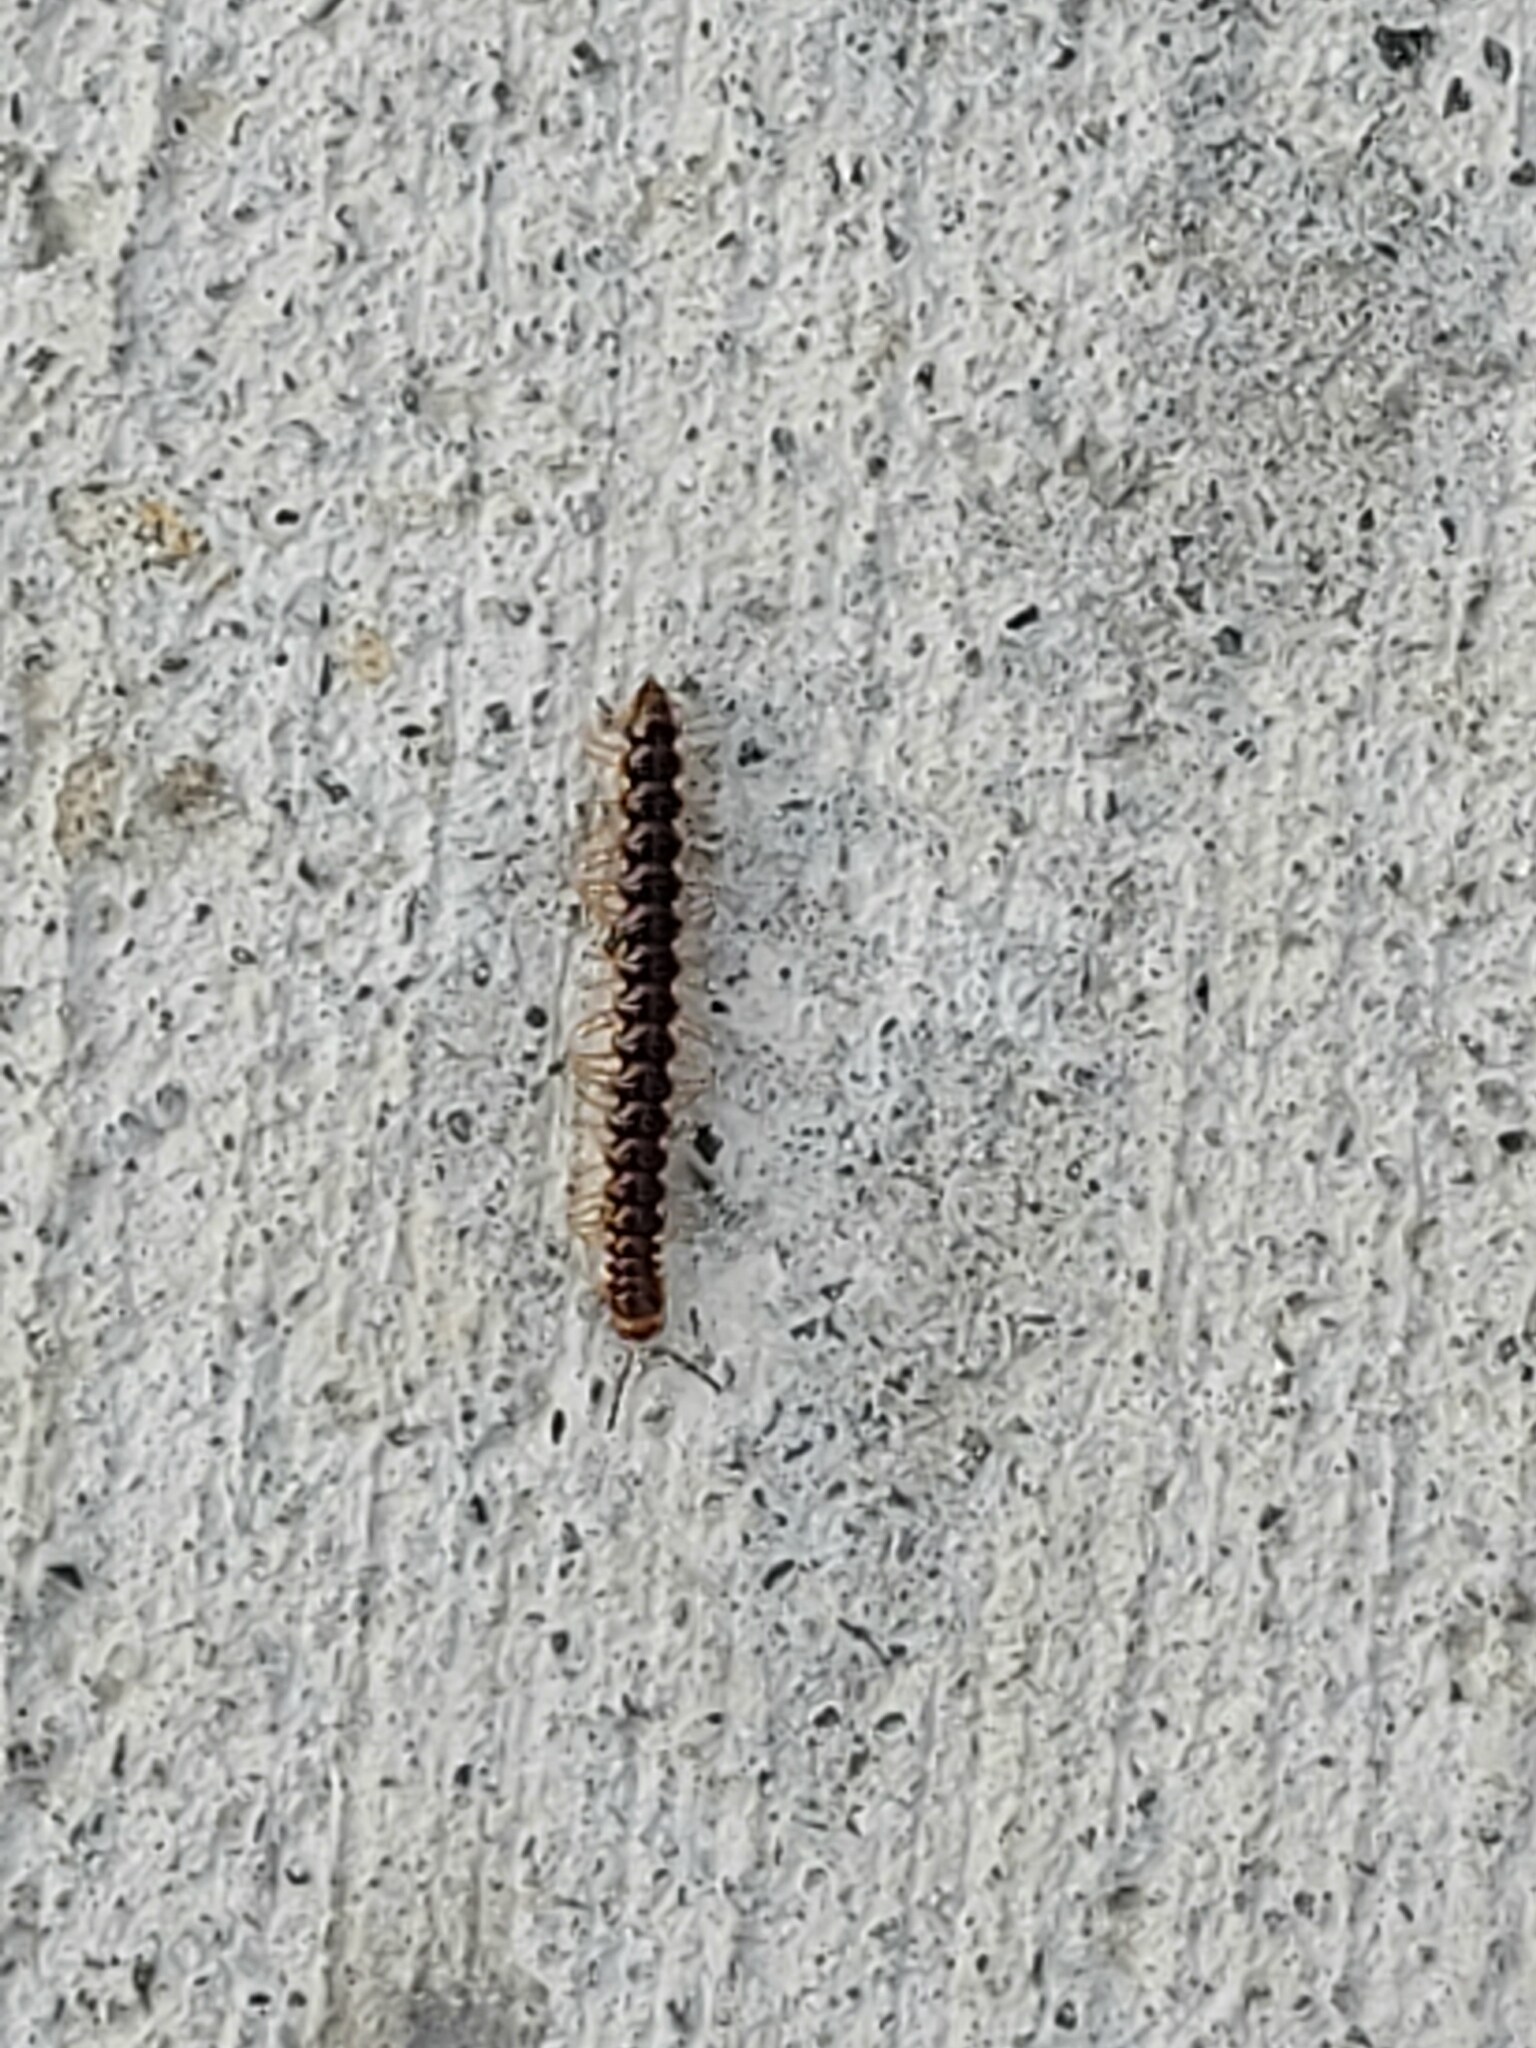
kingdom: Animalia
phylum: Arthropoda
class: Diplopoda
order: Polydesmida
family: Paradoxosomatidae
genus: Oxidus
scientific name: Oxidus gracilis
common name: Greenhouse millipede
